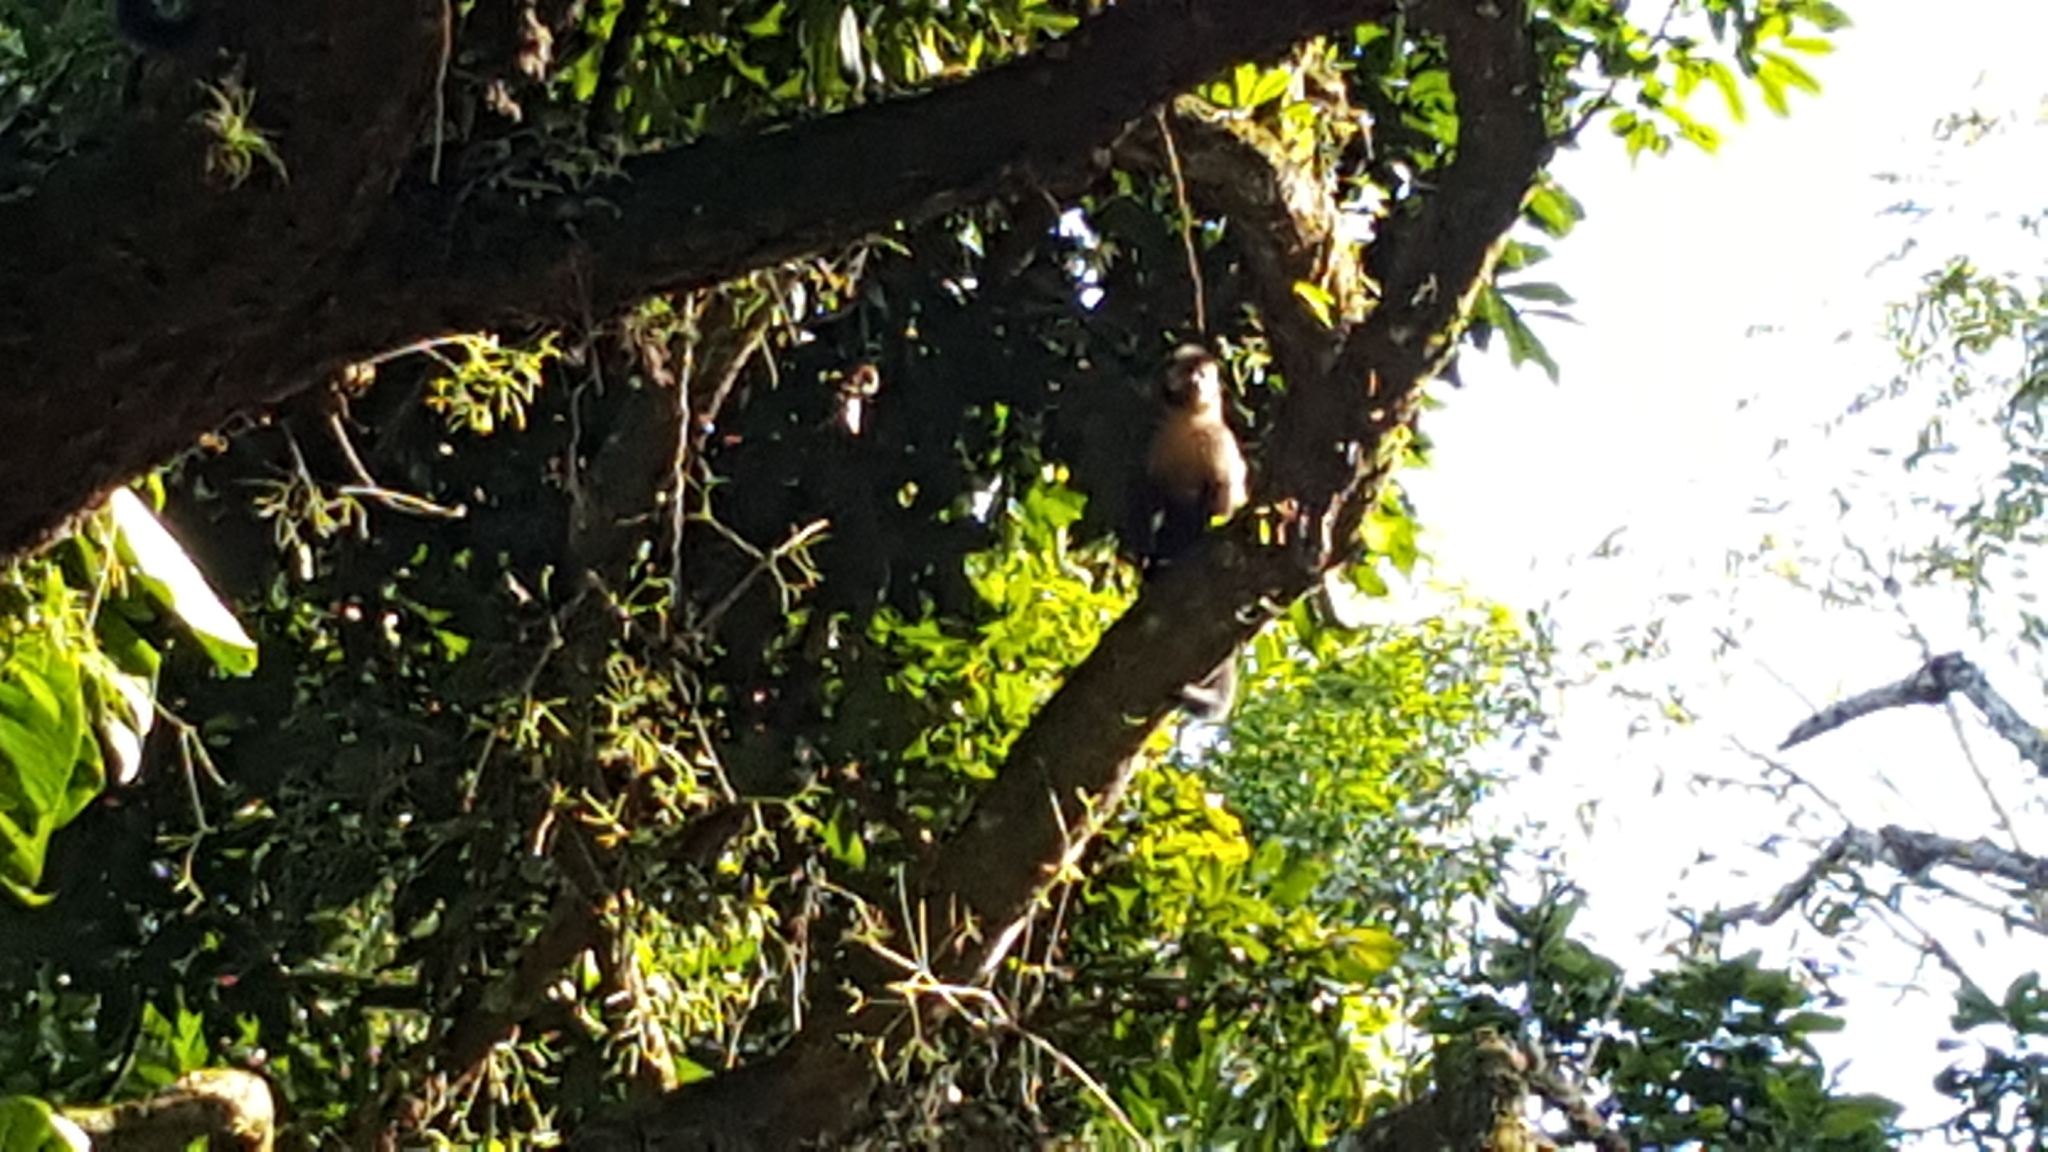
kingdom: Animalia
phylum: Chordata
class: Mammalia
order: Primates
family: Cebidae
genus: Sapajus
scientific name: Sapajus nigritus
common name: Black capuchin
